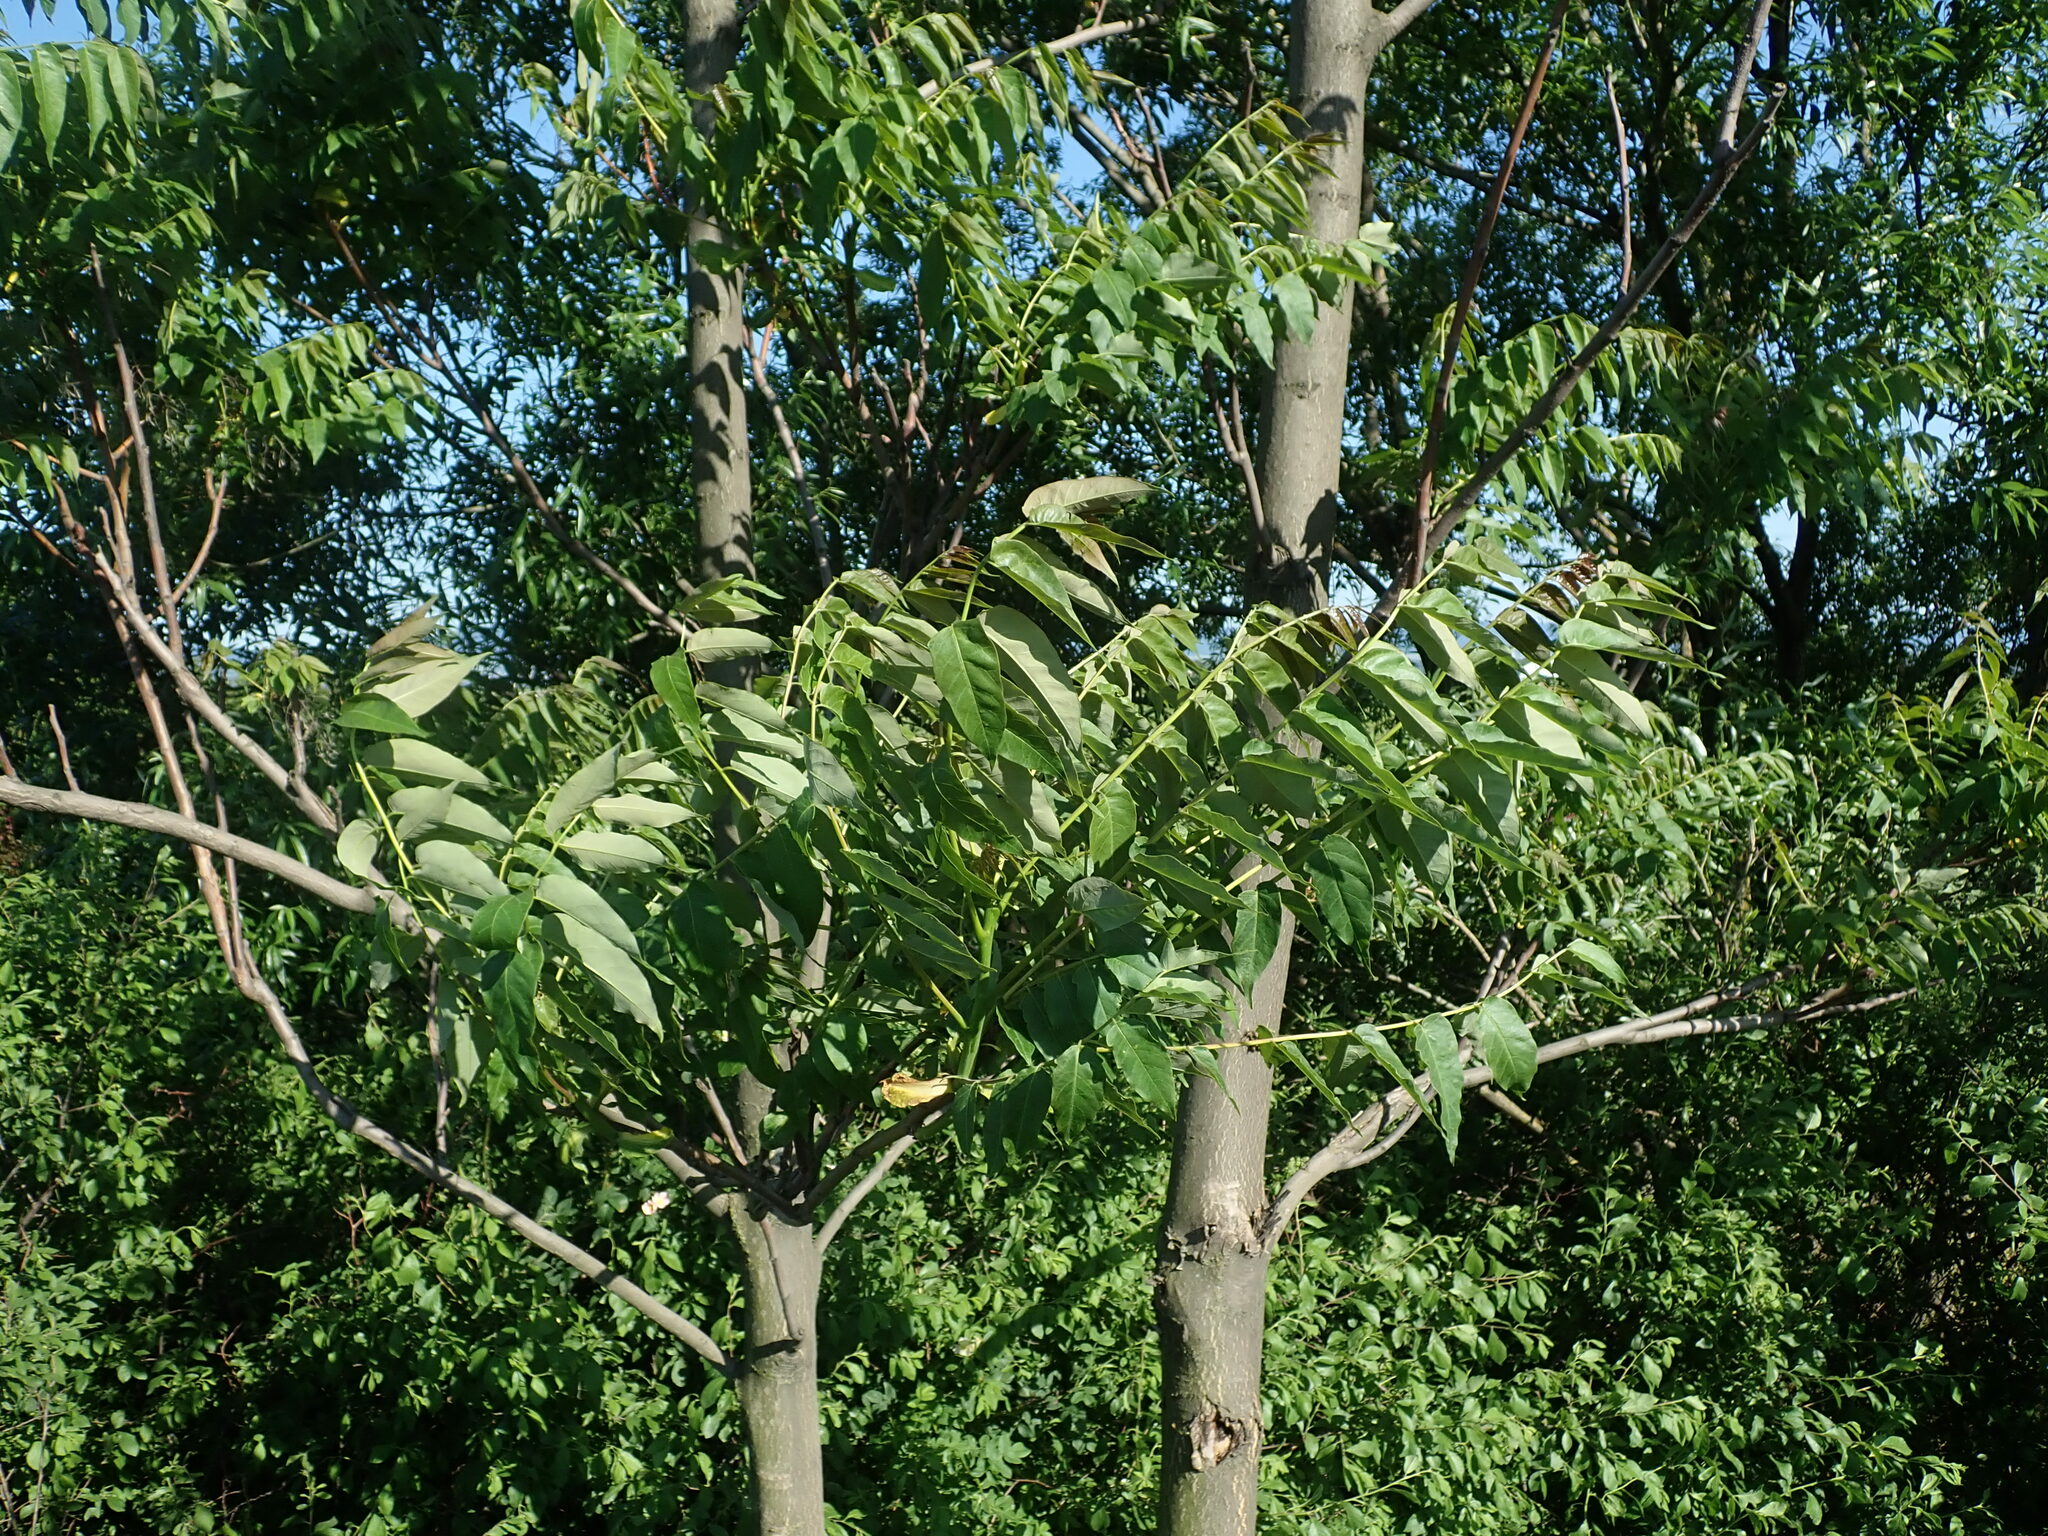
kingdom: Plantae
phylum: Tracheophyta
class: Magnoliopsida
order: Sapindales
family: Simaroubaceae
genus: Ailanthus
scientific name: Ailanthus altissima
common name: Tree-of-heaven
